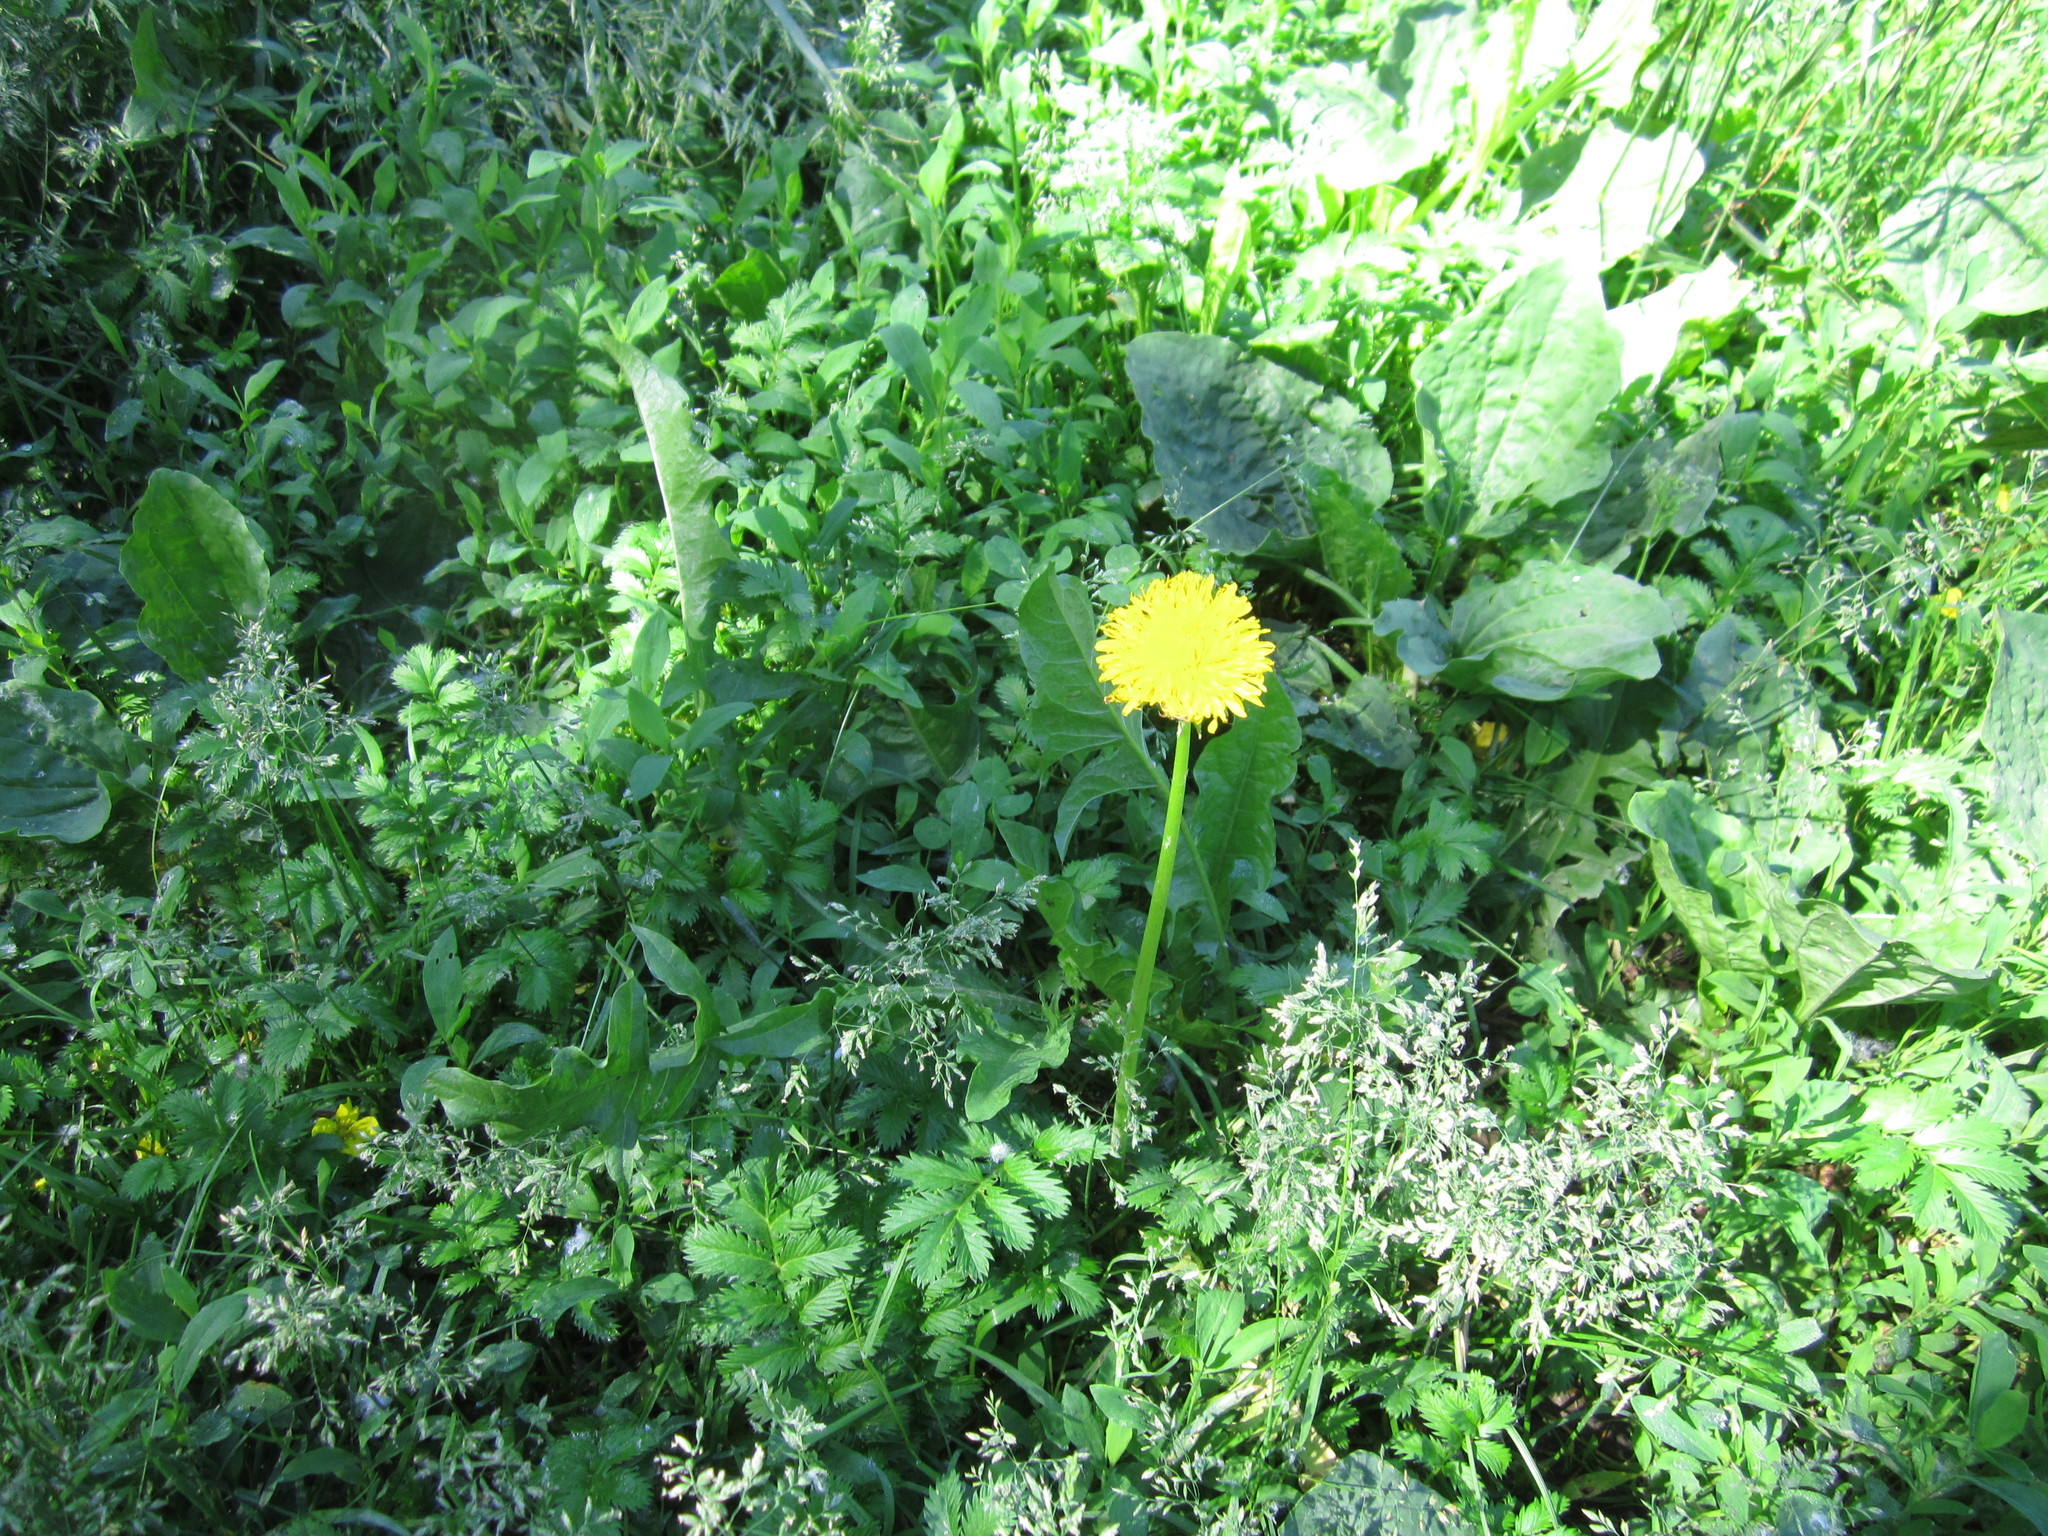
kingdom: Plantae
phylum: Tracheophyta
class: Magnoliopsida
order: Asterales
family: Asteraceae
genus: Taraxacum
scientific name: Taraxacum officinale
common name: Common dandelion
